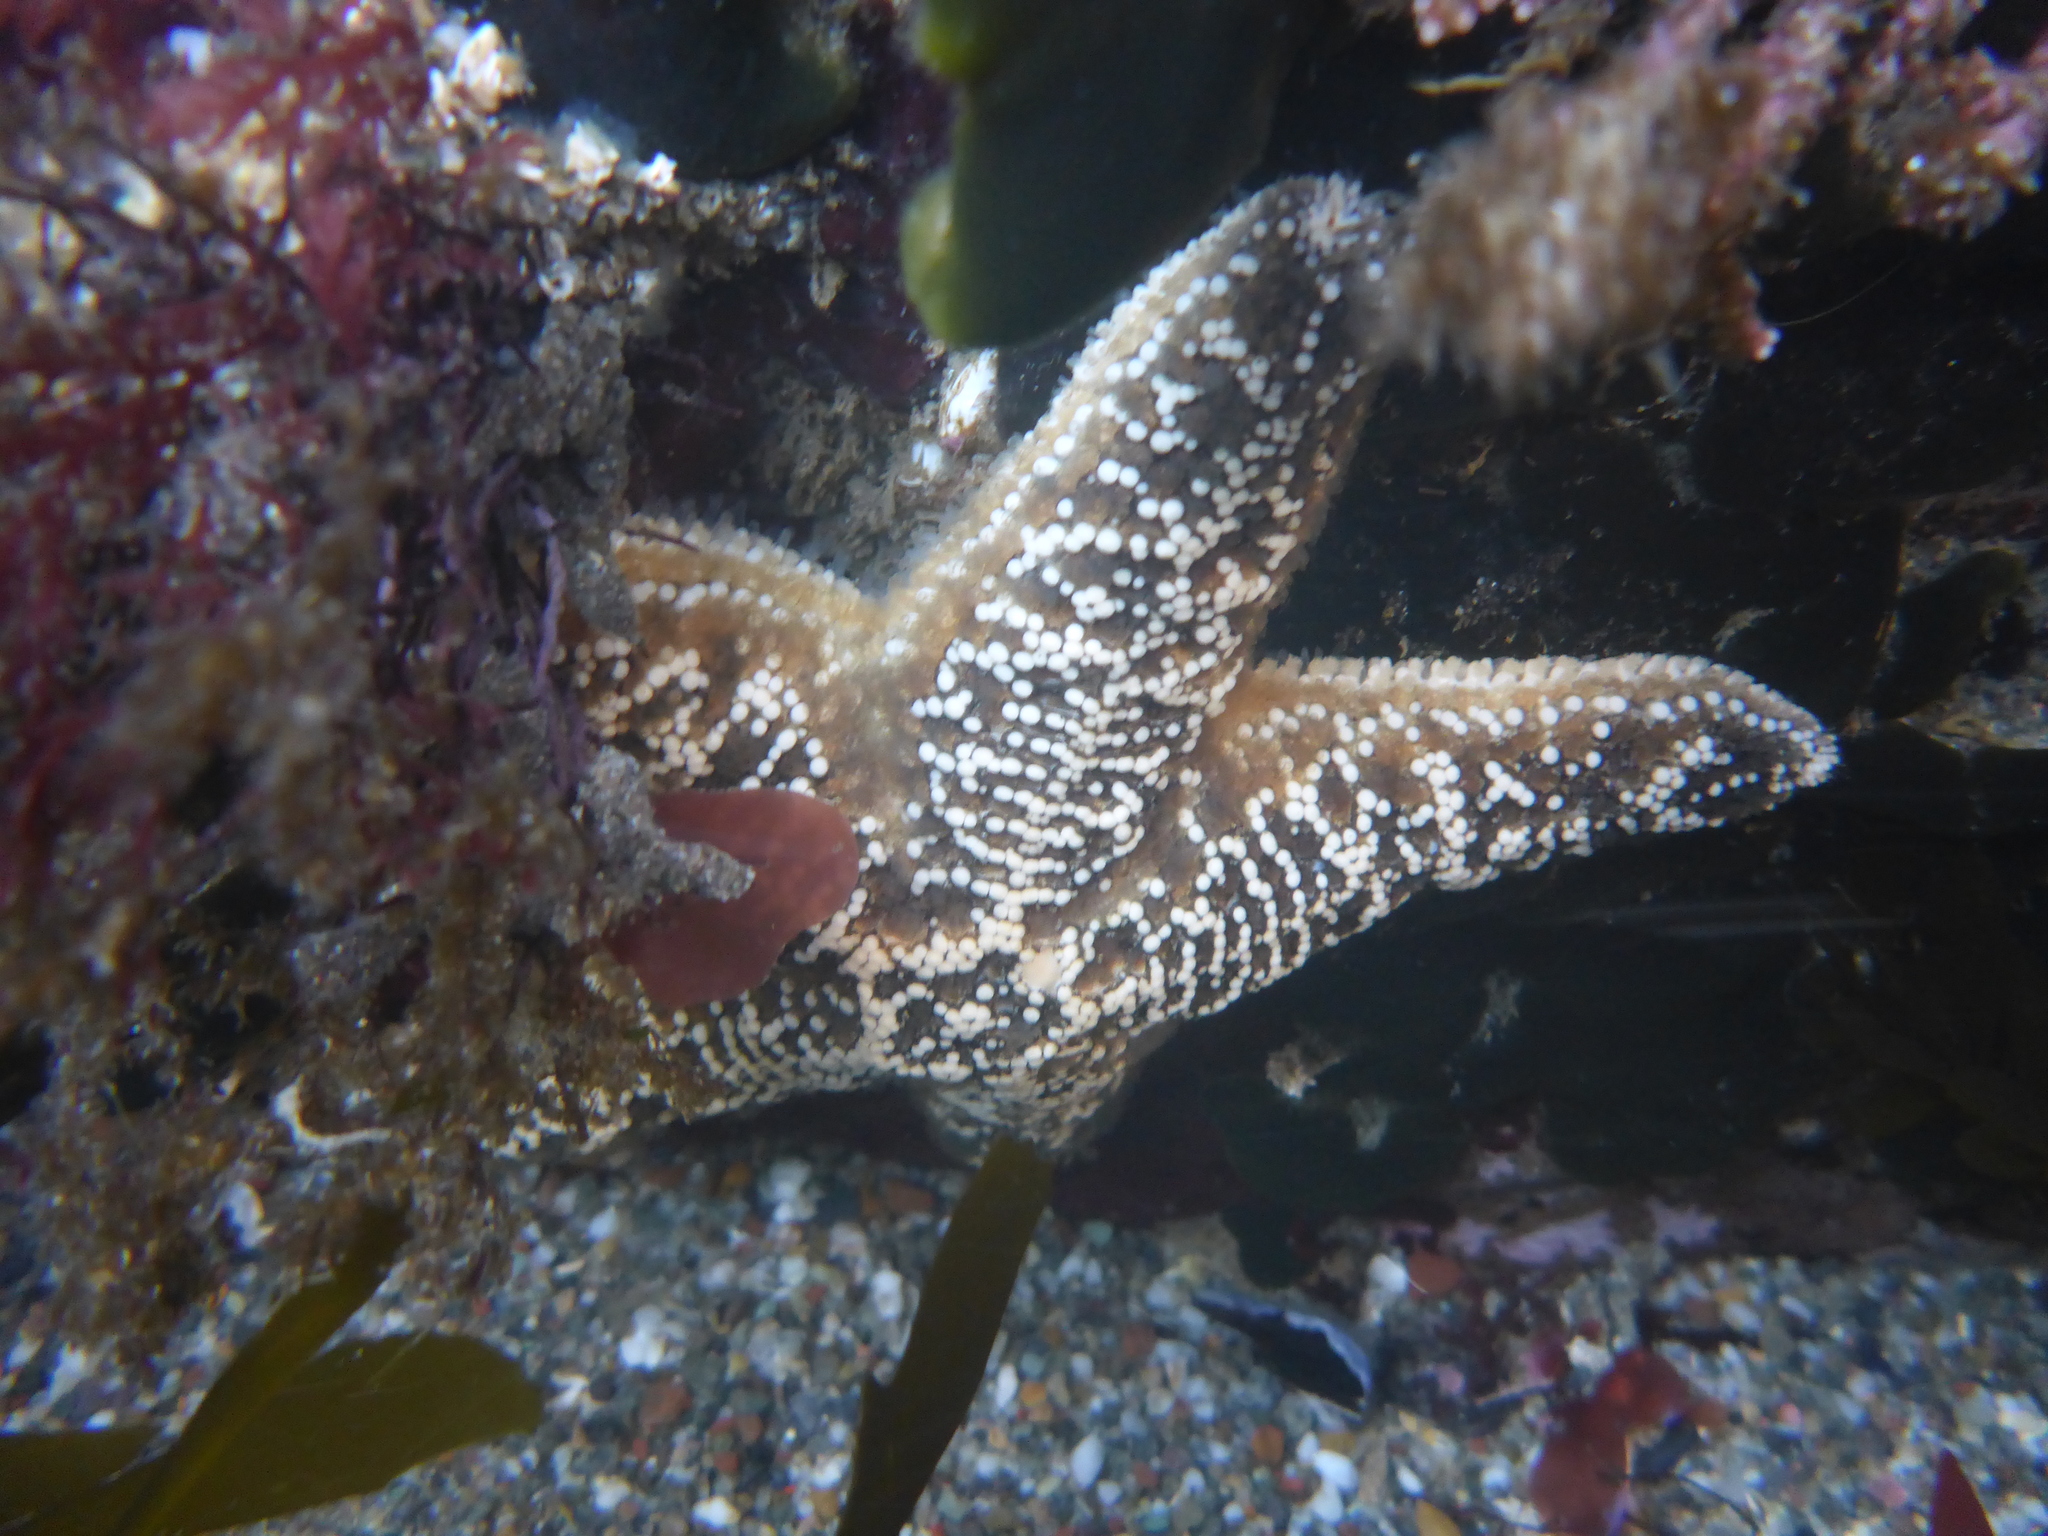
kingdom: Animalia
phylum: Echinodermata
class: Asteroidea
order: Forcipulatida
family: Asteriidae
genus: Pisaster
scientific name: Pisaster ochraceus
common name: Ochre stars
